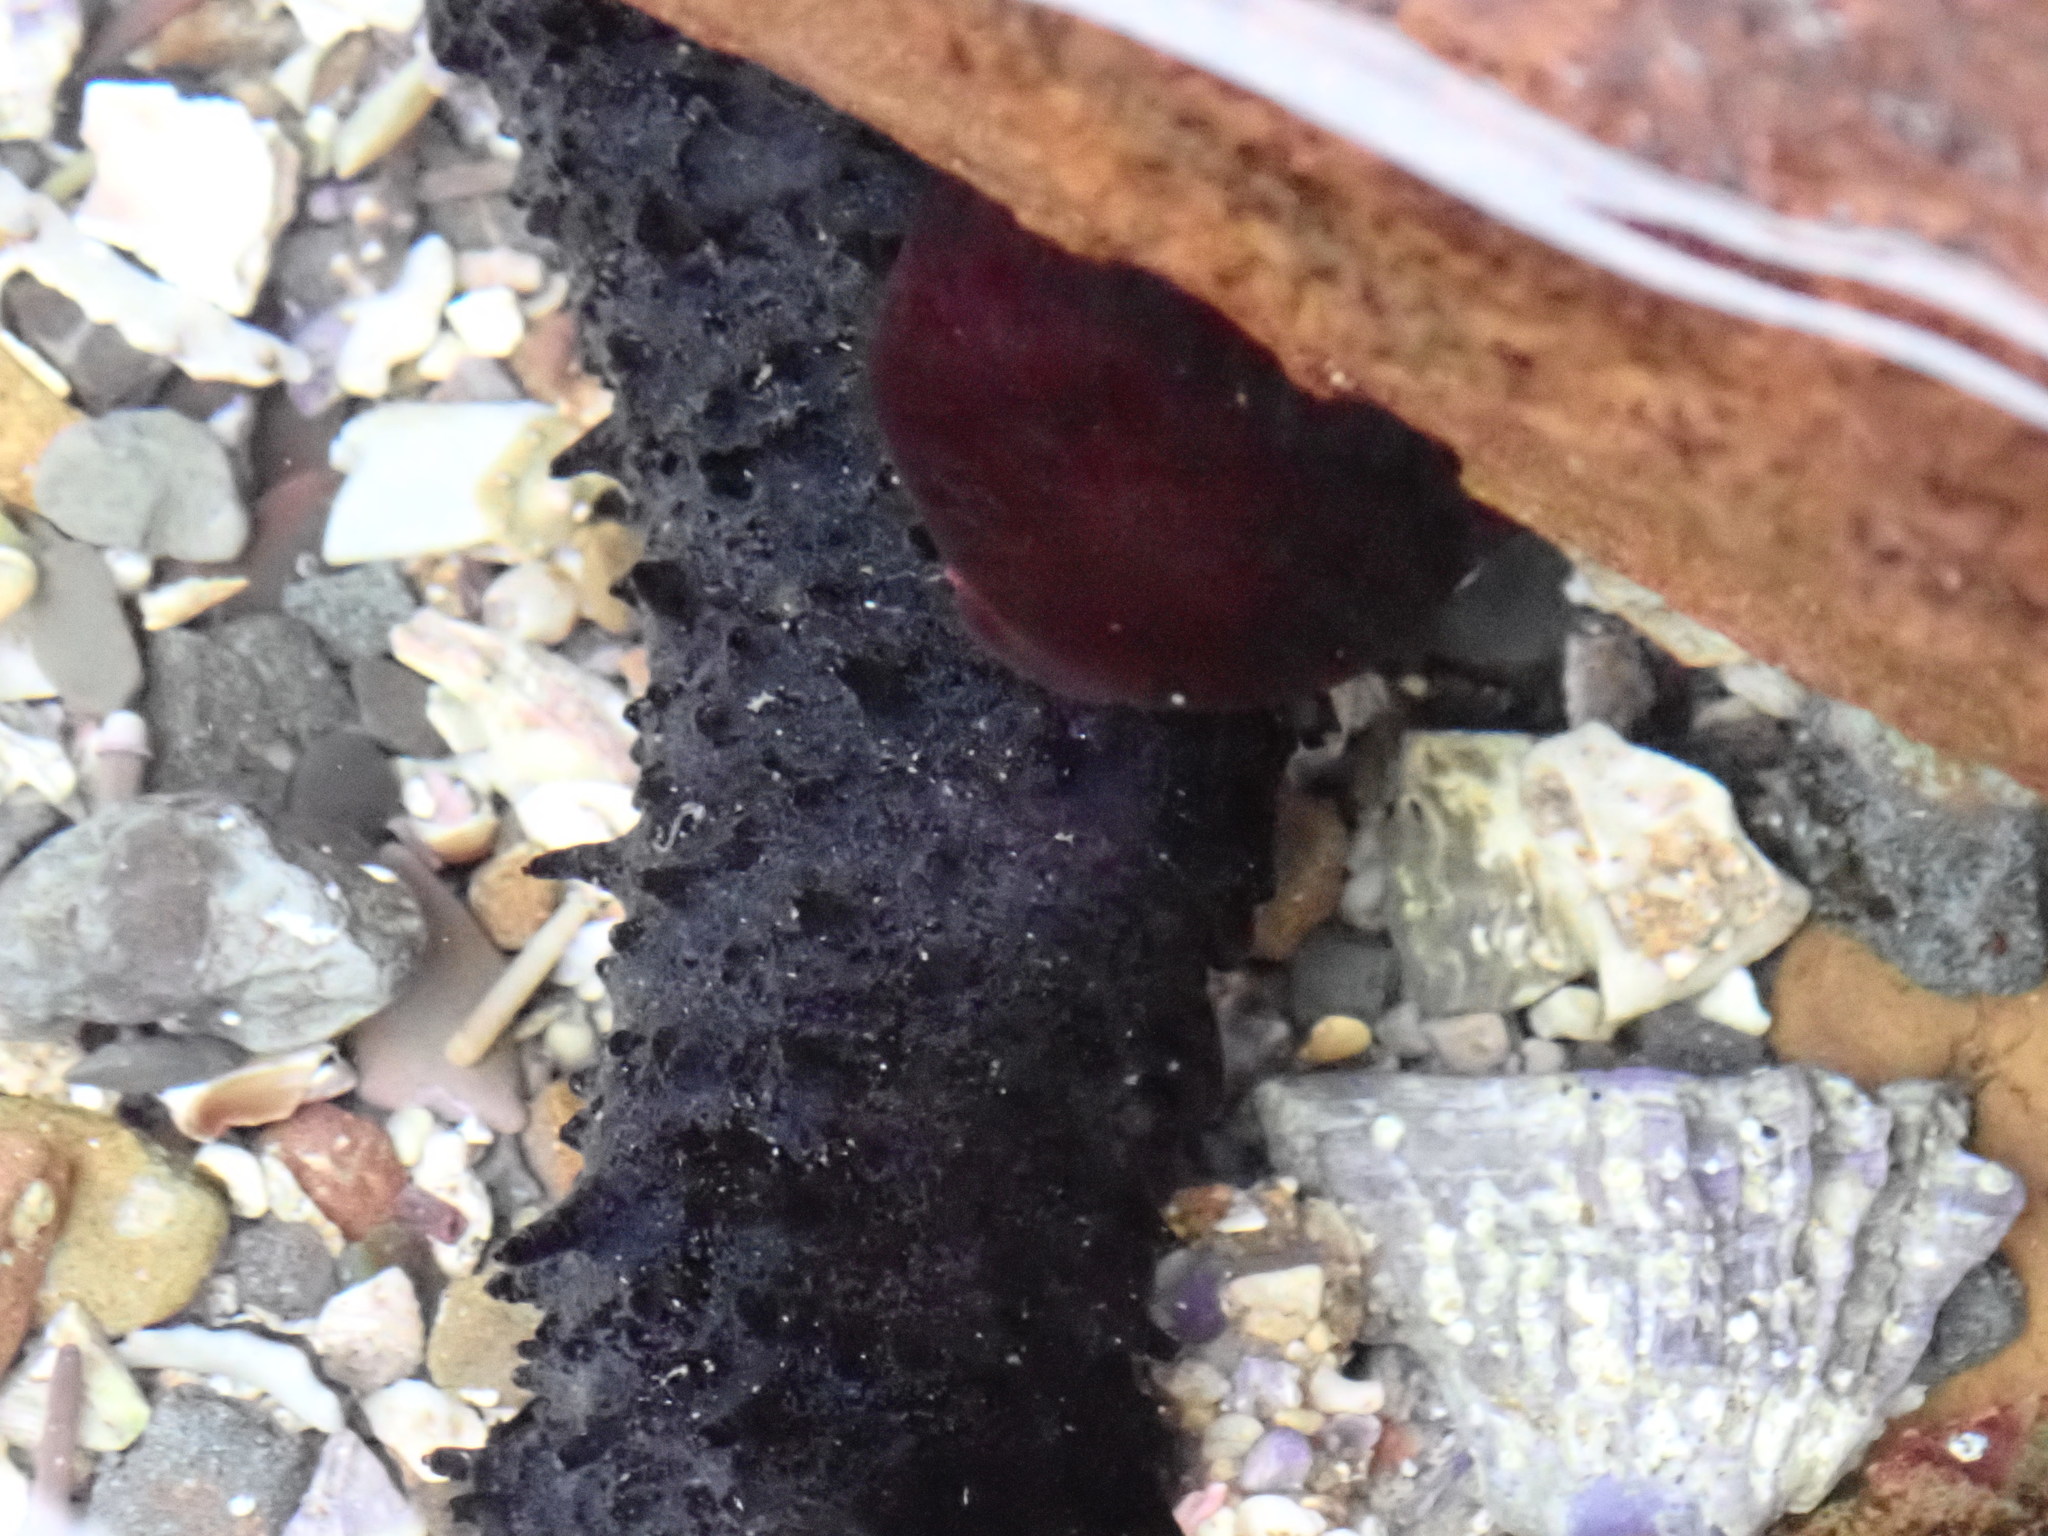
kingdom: Animalia
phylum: Cnidaria
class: Anthozoa
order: Actiniaria
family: Actiniidae
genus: Actinia
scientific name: Actinia tenebrosa
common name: Waratah anemone
